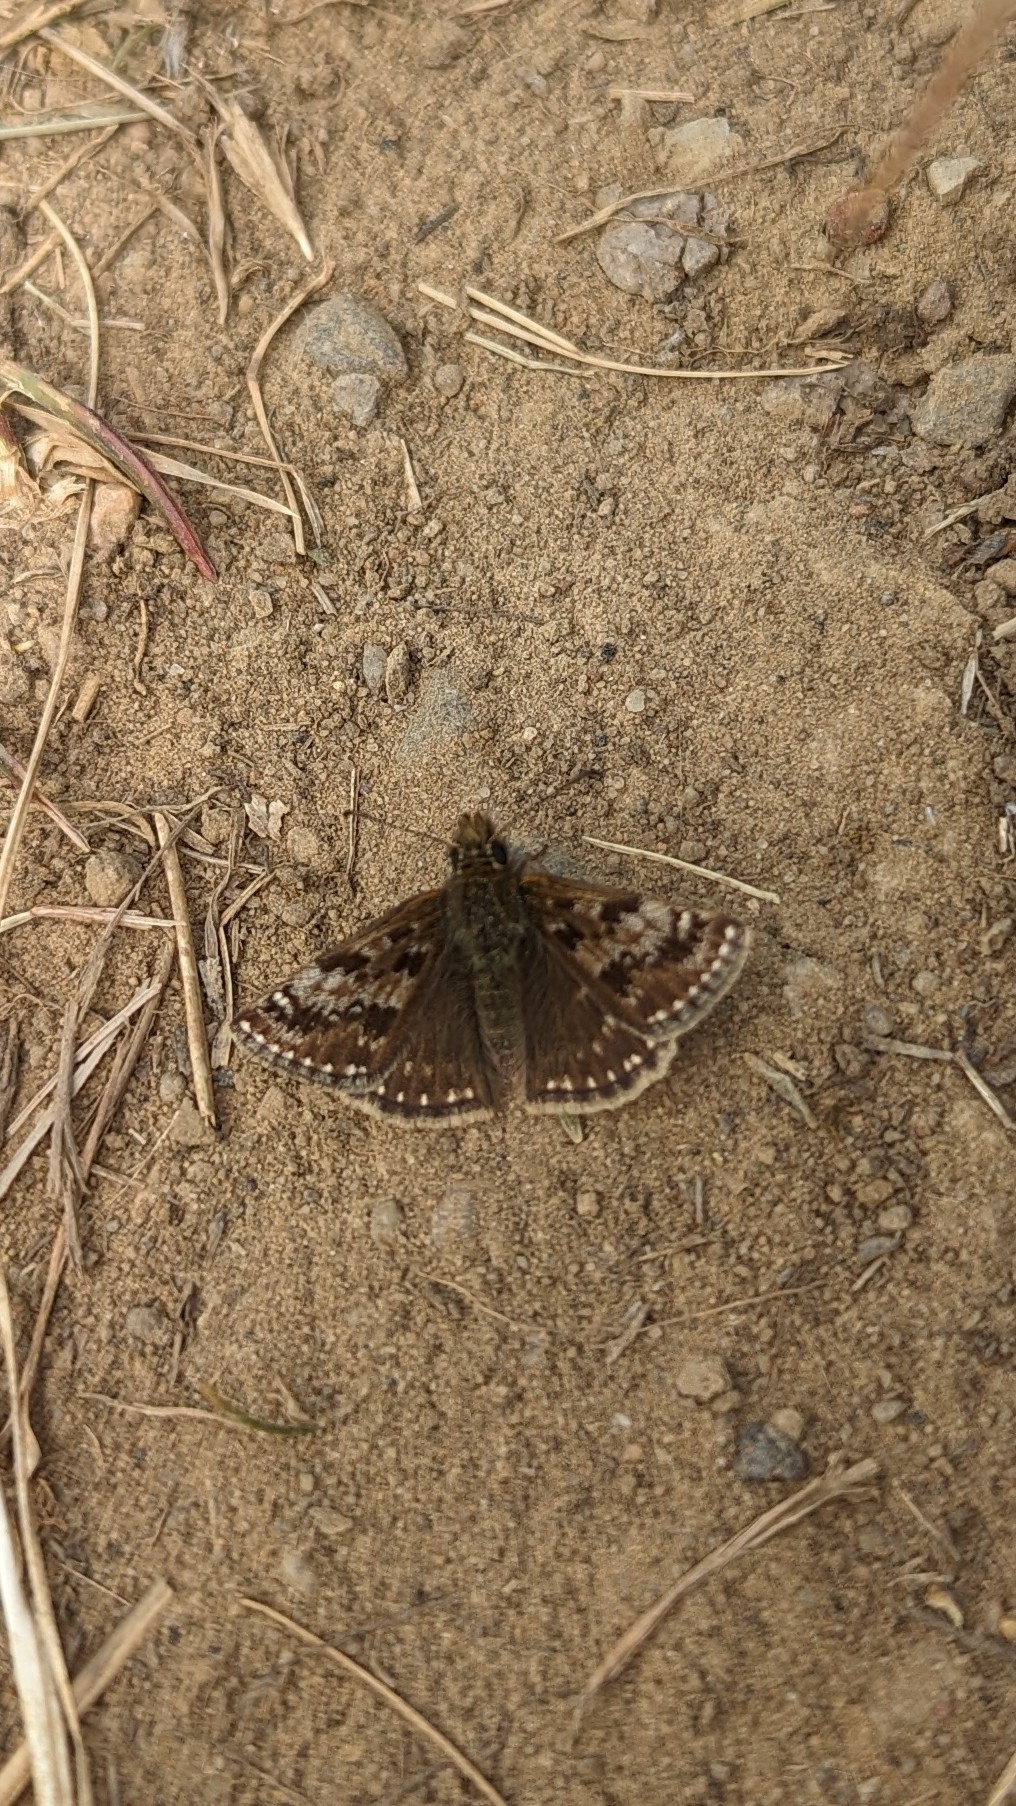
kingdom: Animalia
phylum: Arthropoda
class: Insecta
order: Lepidoptera
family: Hesperiidae
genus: Erynnis
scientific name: Erynnis tages
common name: Dingy skipper
